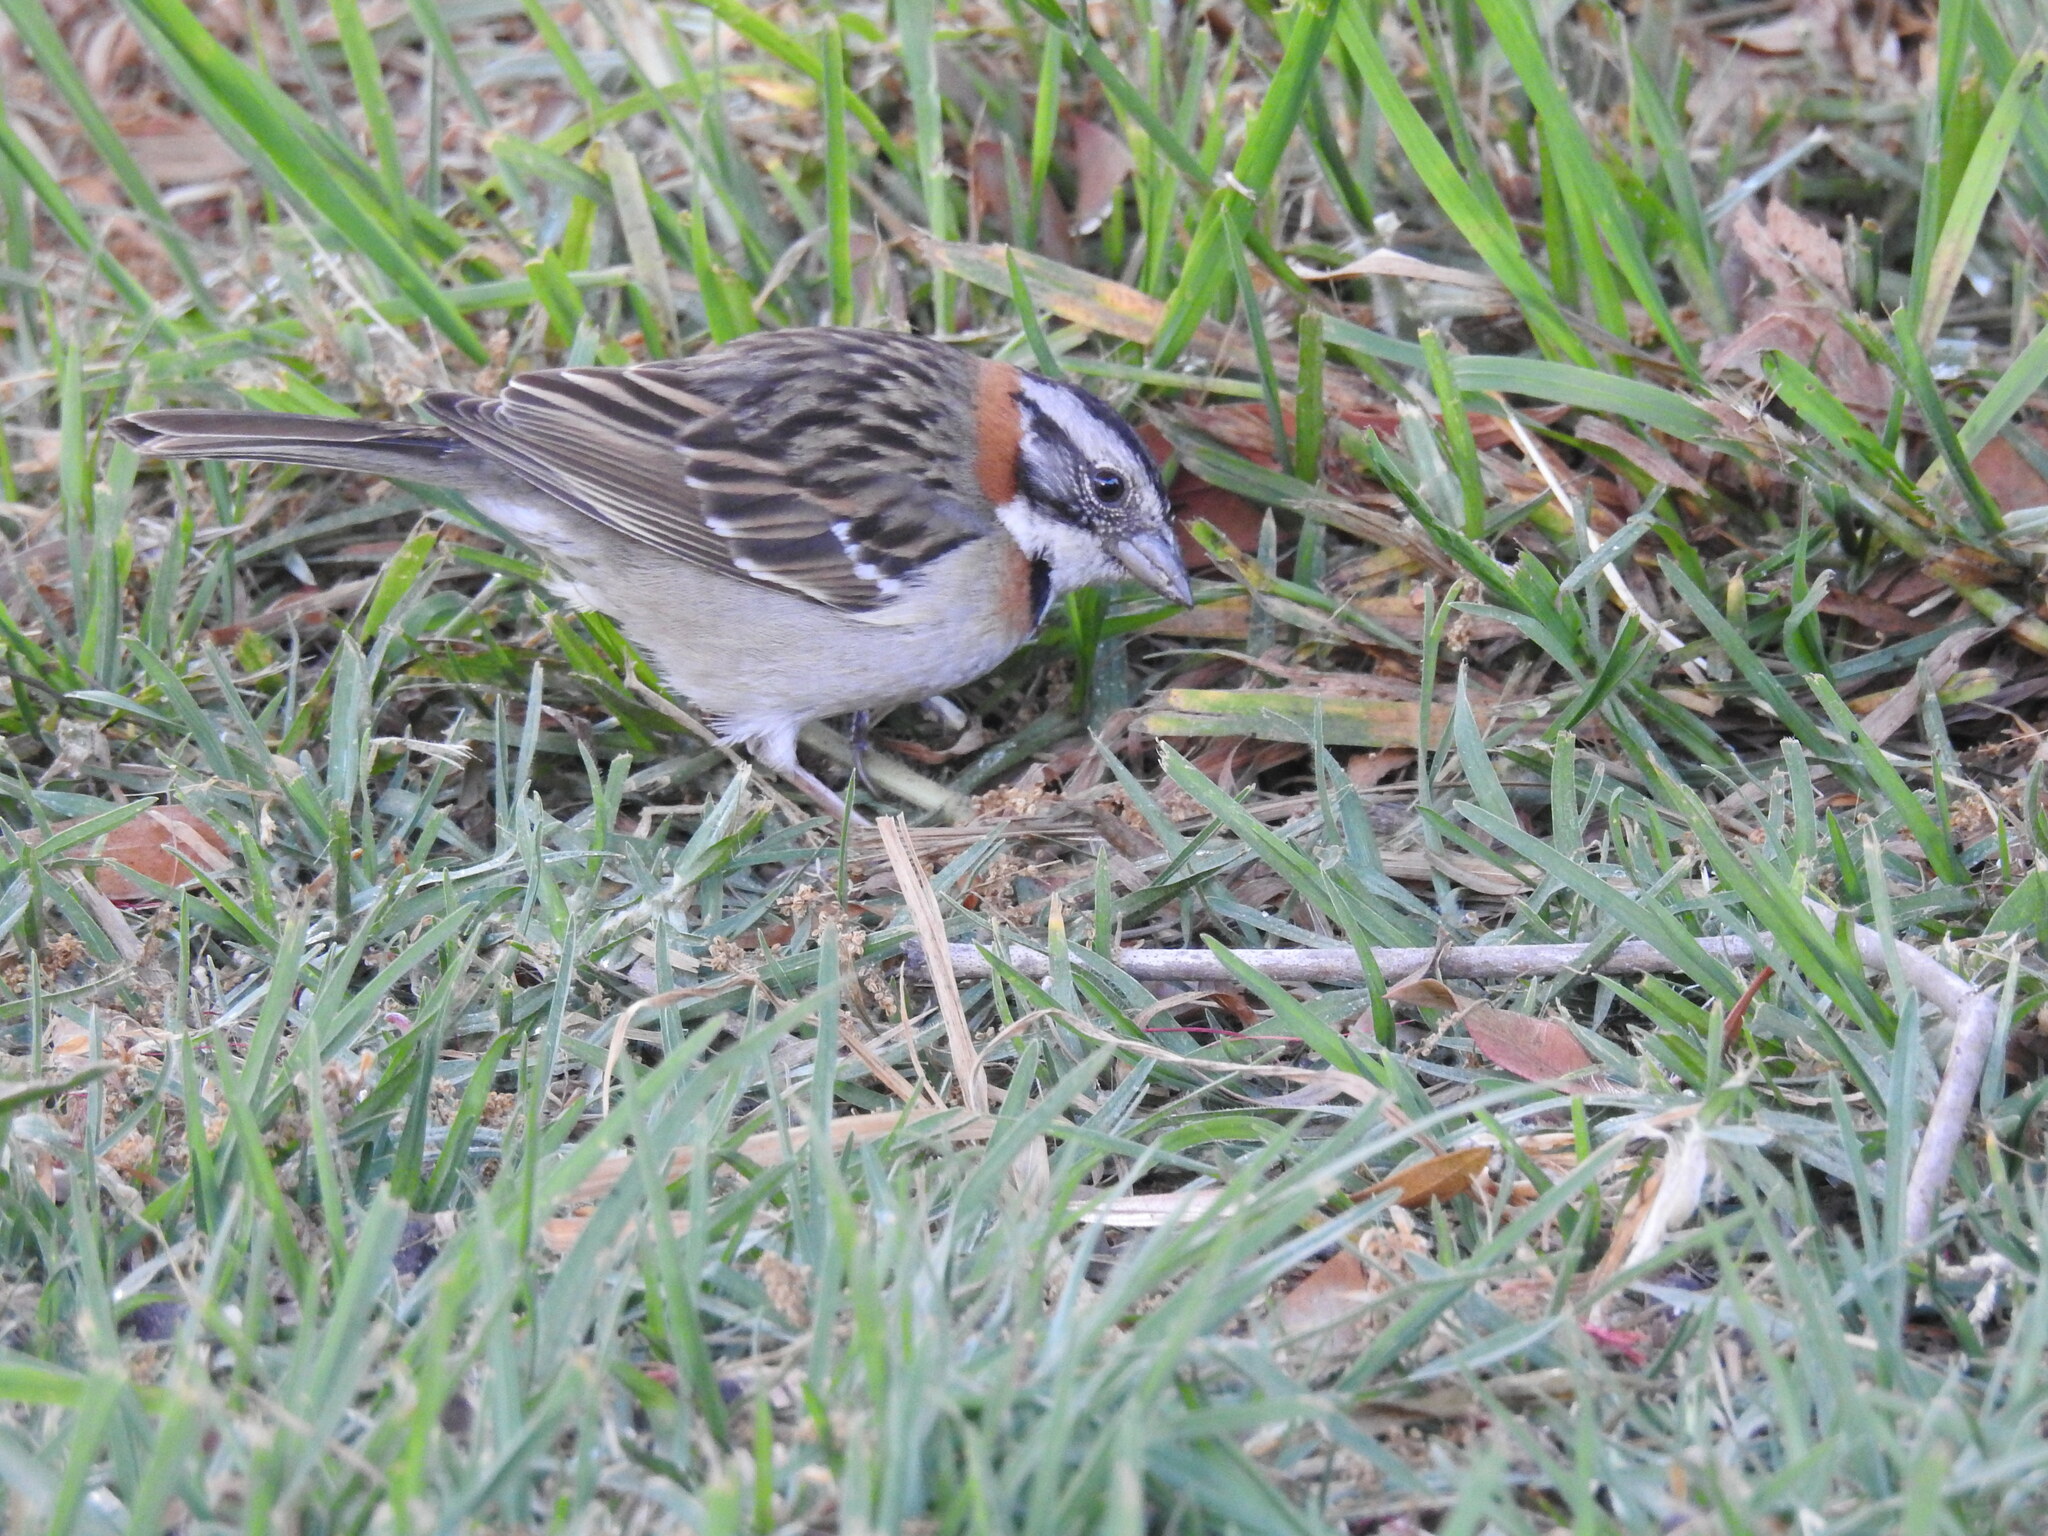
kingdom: Animalia
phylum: Chordata
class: Aves
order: Passeriformes
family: Passerellidae
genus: Zonotrichia
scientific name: Zonotrichia capensis
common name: Rufous-collared sparrow
